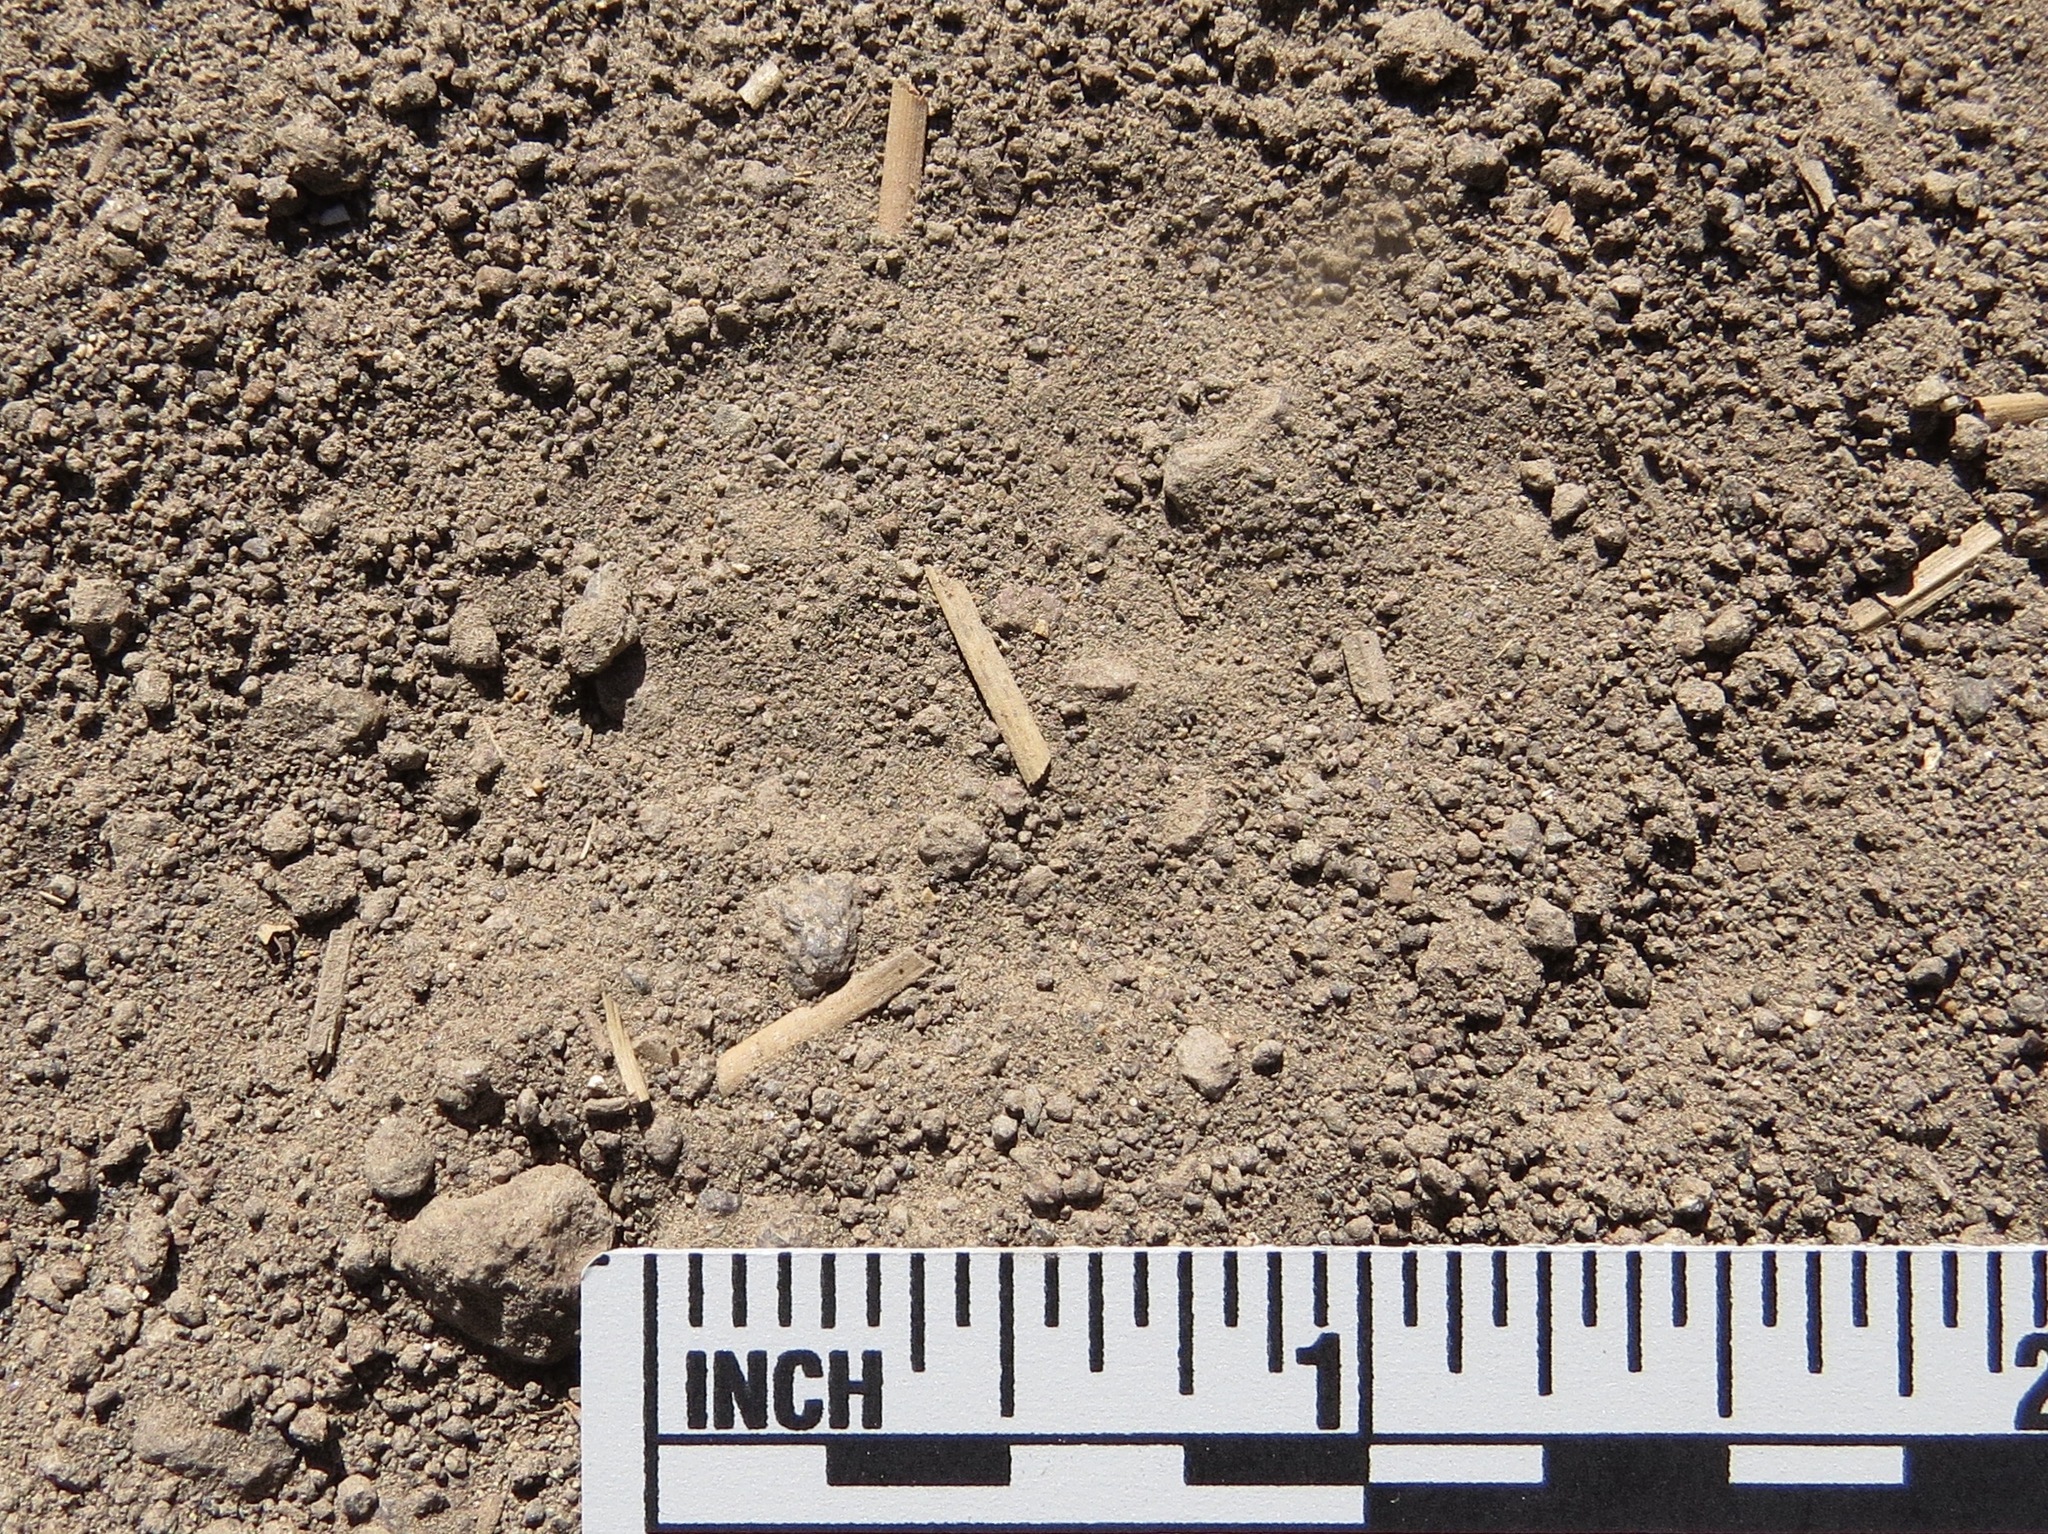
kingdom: Animalia
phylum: Chordata
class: Mammalia
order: Carnivora
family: Canidae
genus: Urocyon
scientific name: Urocyon cinereoargenteus
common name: Gray fox
